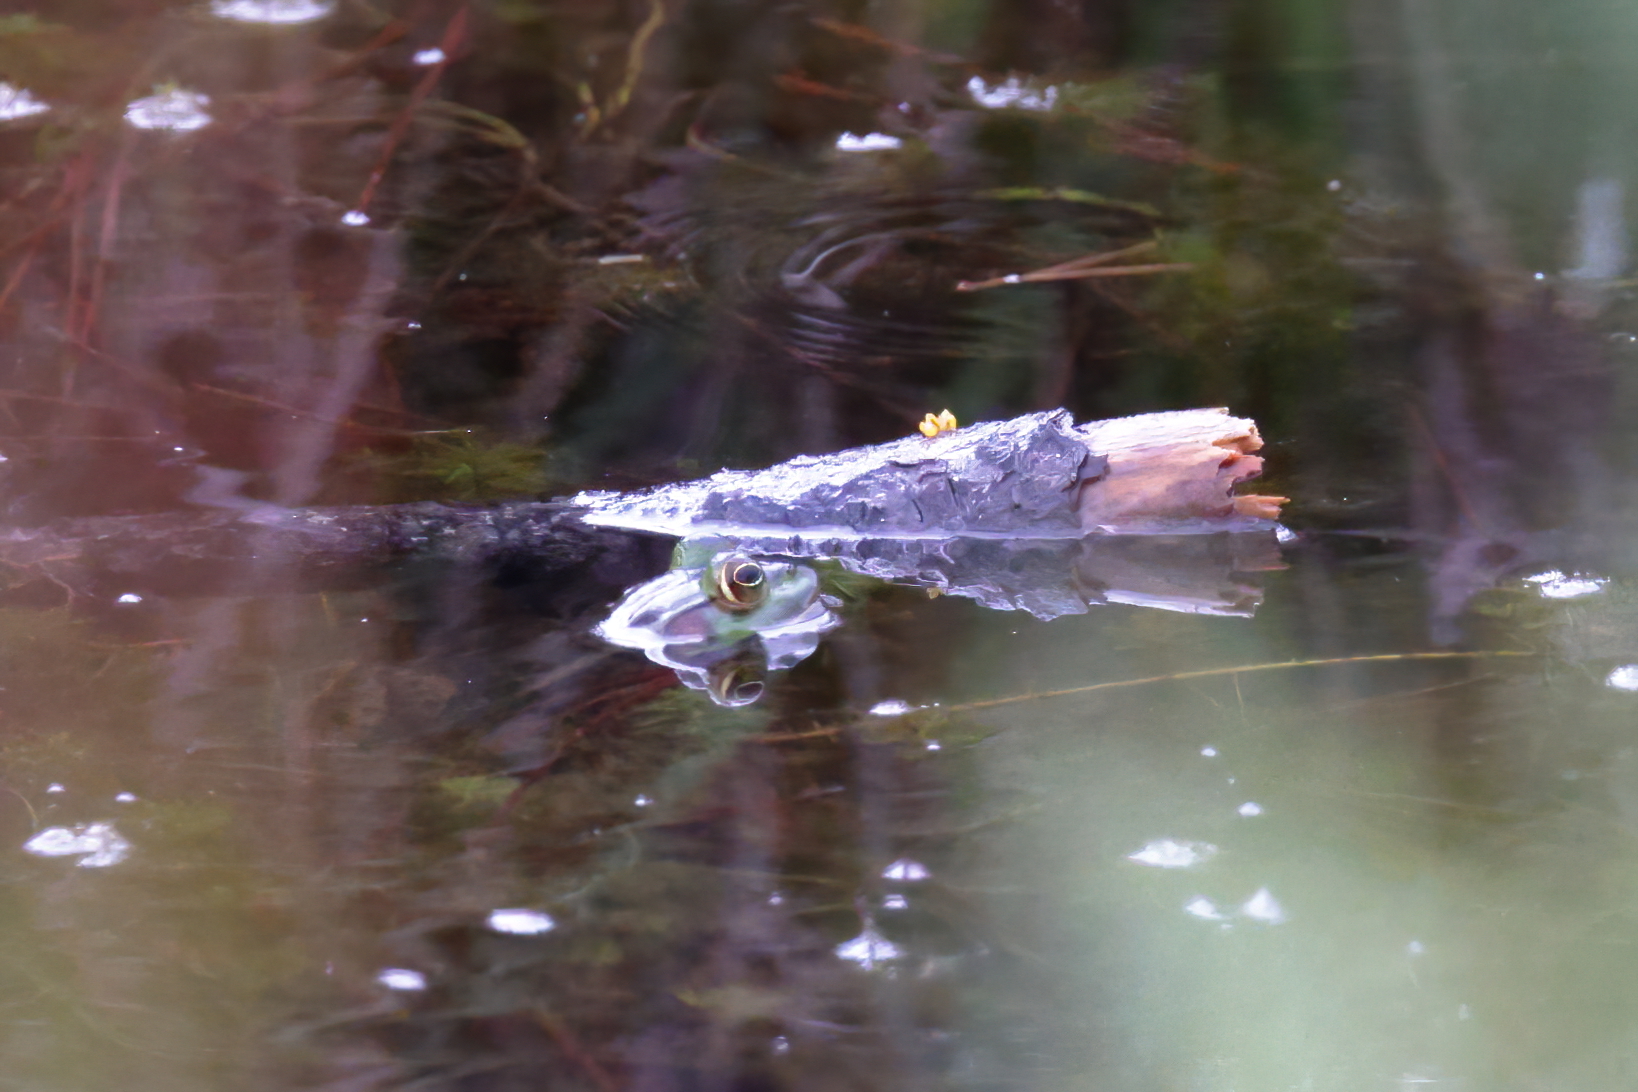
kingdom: Animalia
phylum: Chordata
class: Amphibia
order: Anura
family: Ranidae
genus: Lithobates
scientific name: Lithobates grylio
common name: Pig frog
